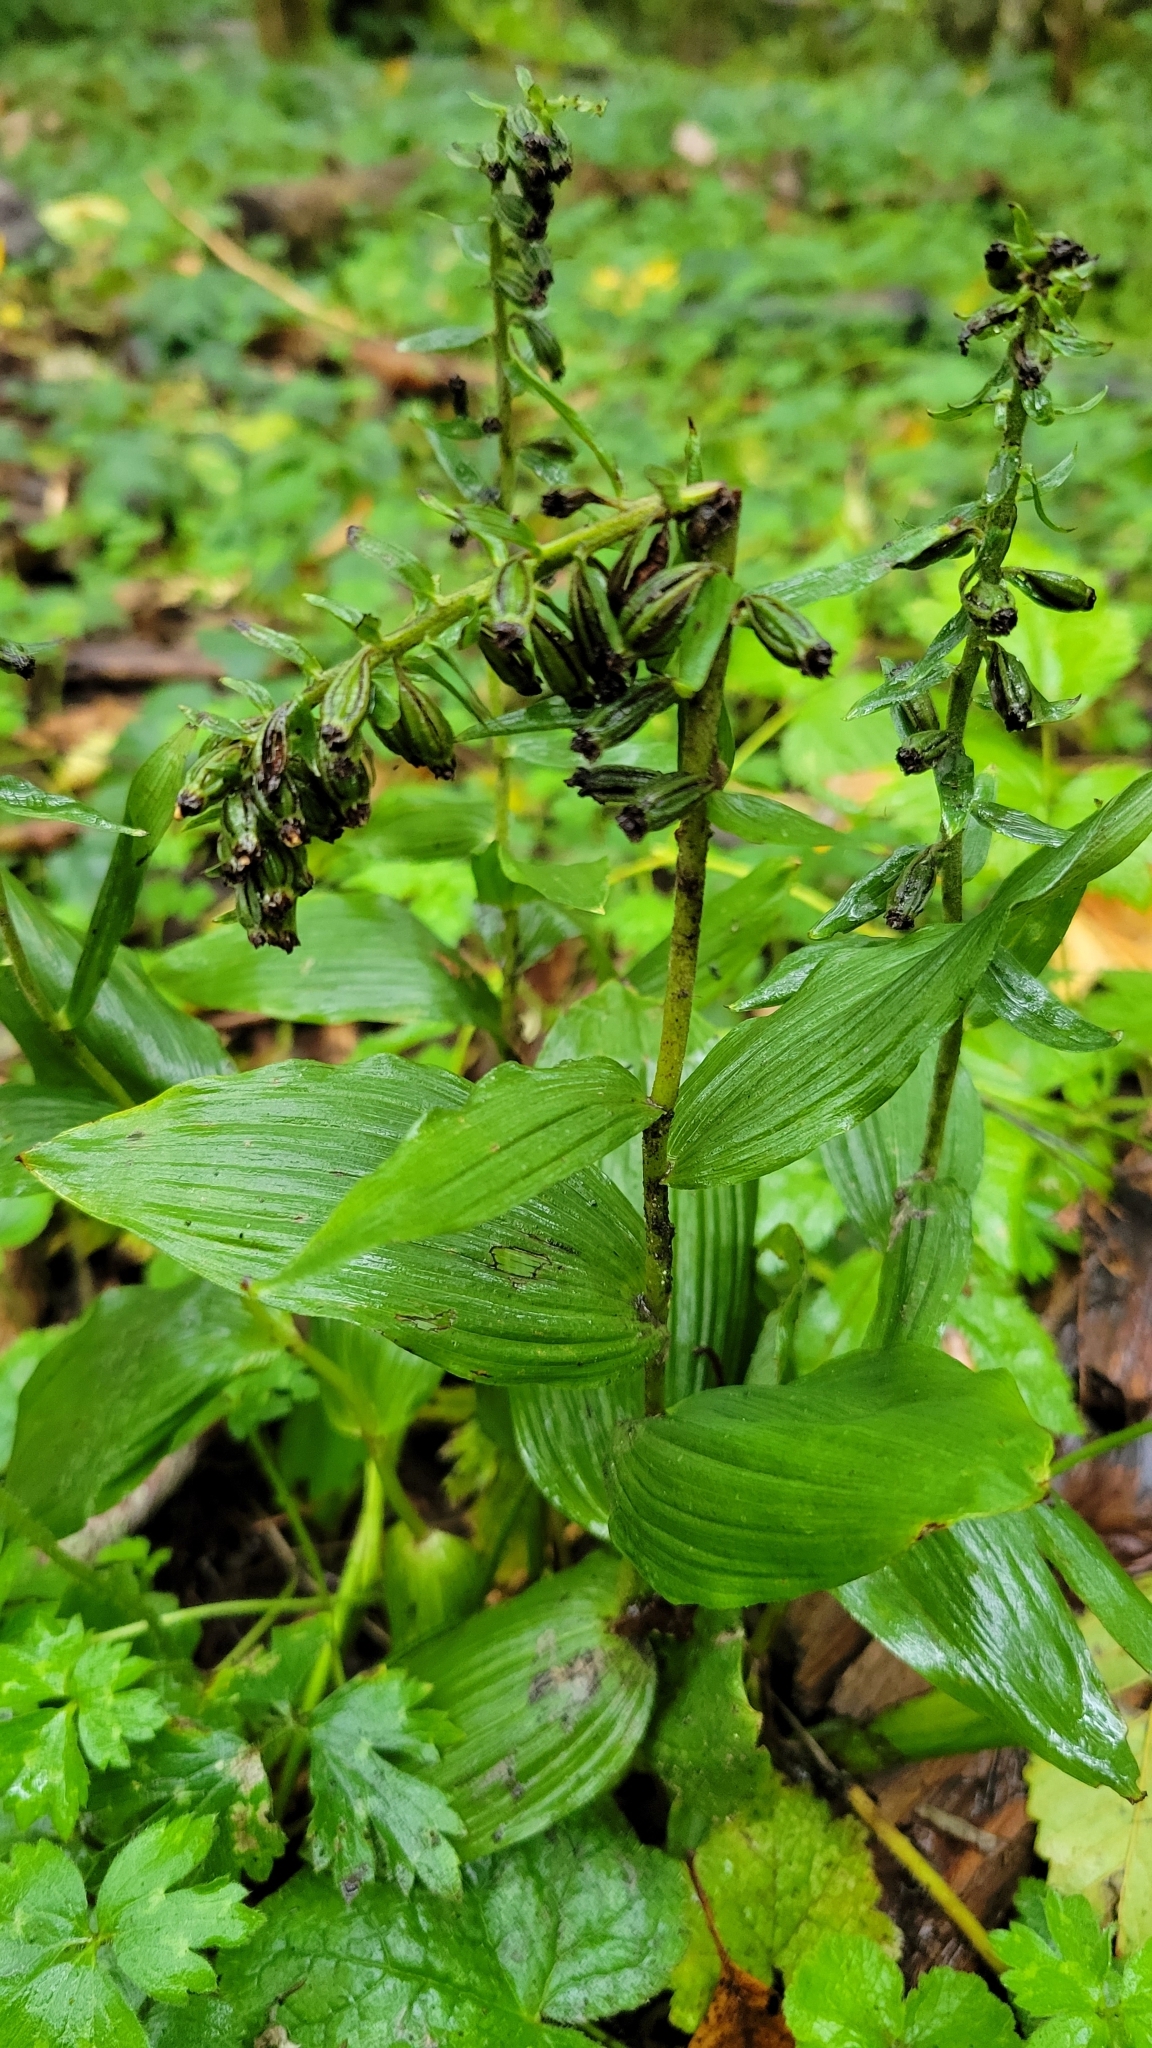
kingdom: Plantae
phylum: Tracheophyta
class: Liliopsida
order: Asparagales
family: Orchidaceae
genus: Epipactis
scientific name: Epipactis helleborine
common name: Broad-leaved helleborine
